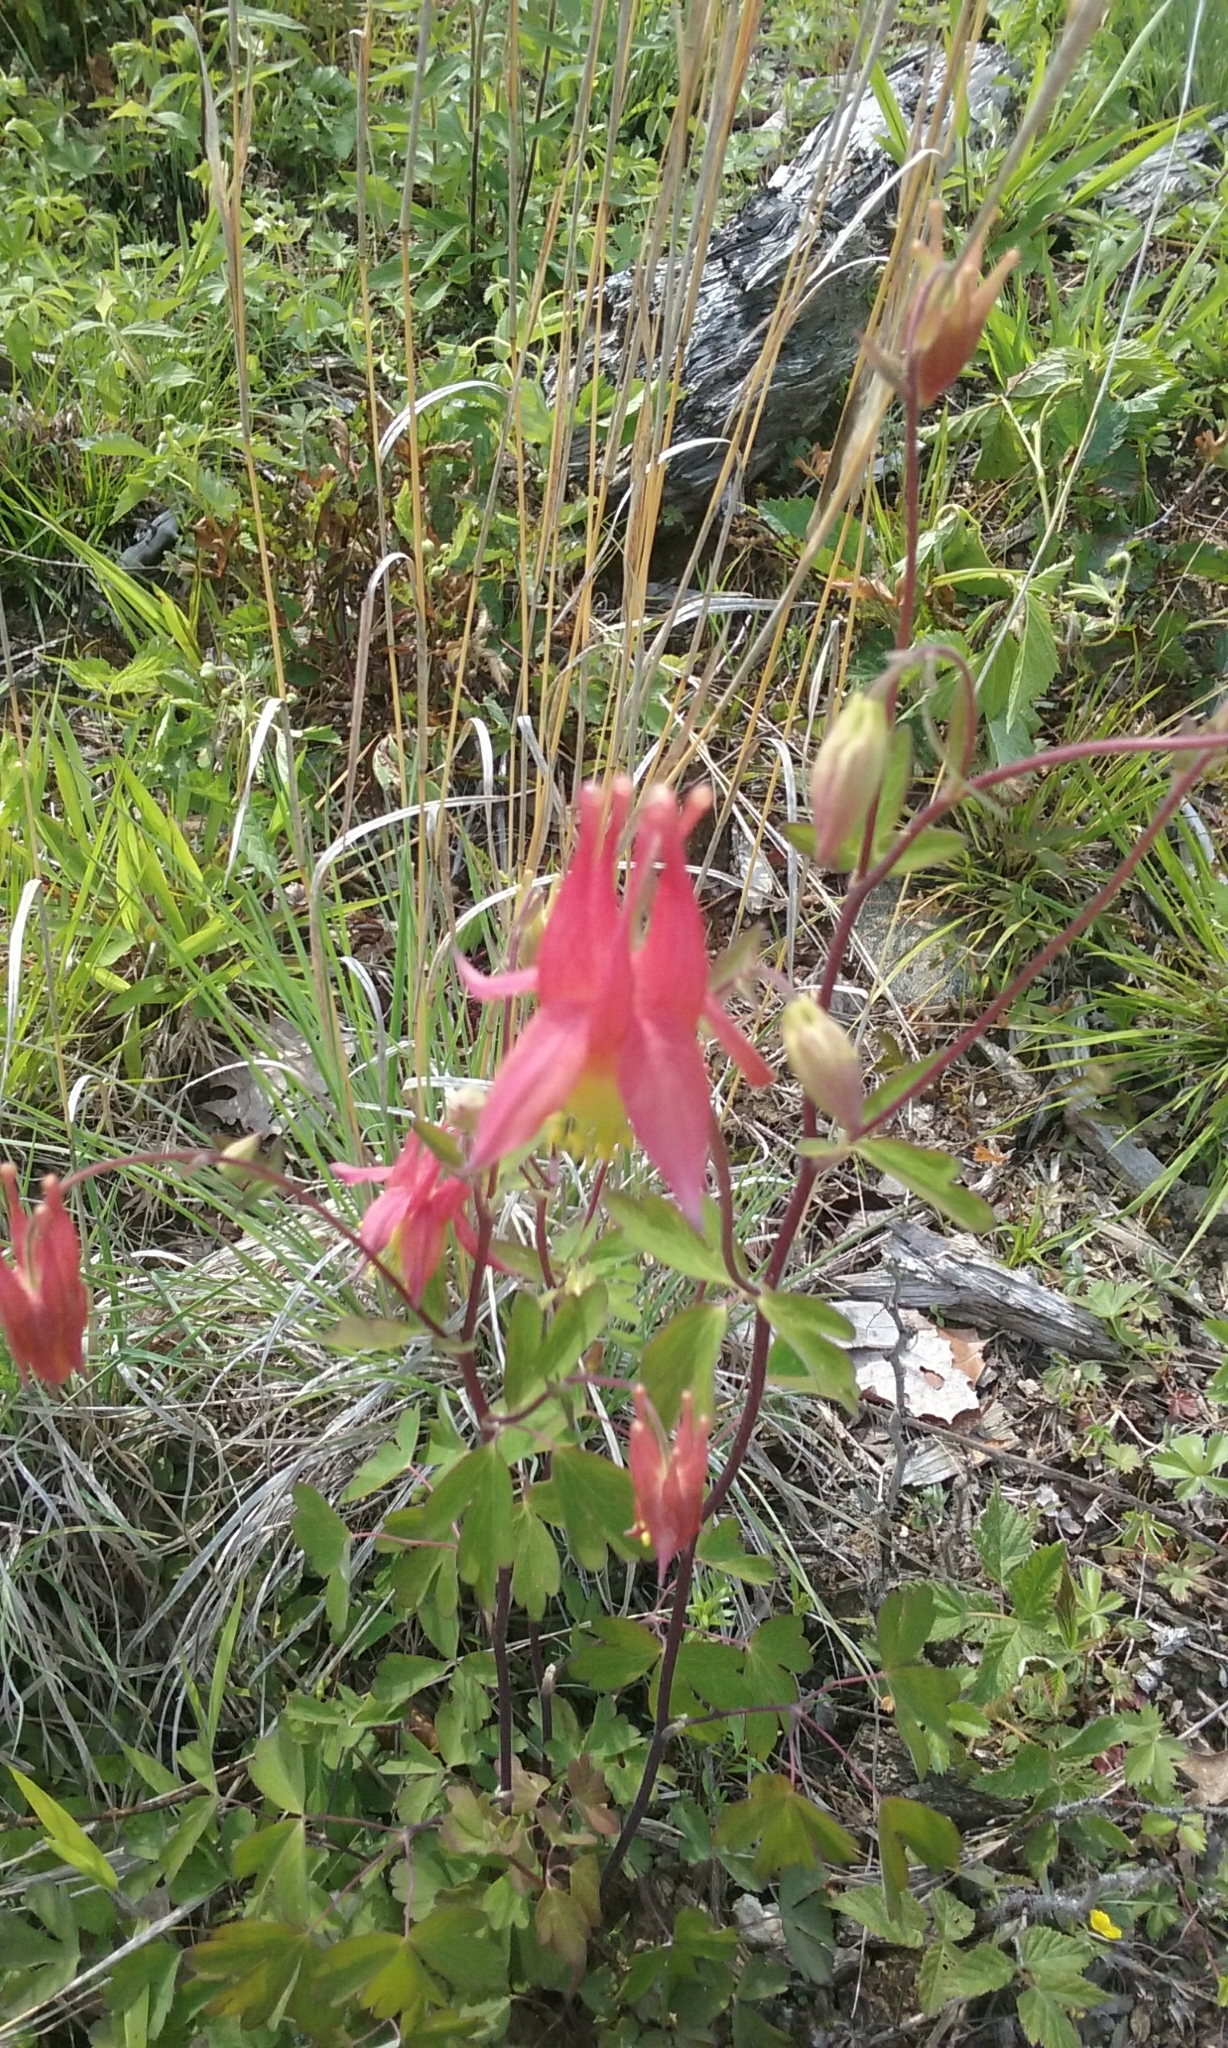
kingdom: Plantae
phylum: Tracheophyta
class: Magnoliopsida
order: Ranunculales
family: Ranunculaceae
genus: Aquilegia
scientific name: Aquilegia canadensis
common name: American columbine
